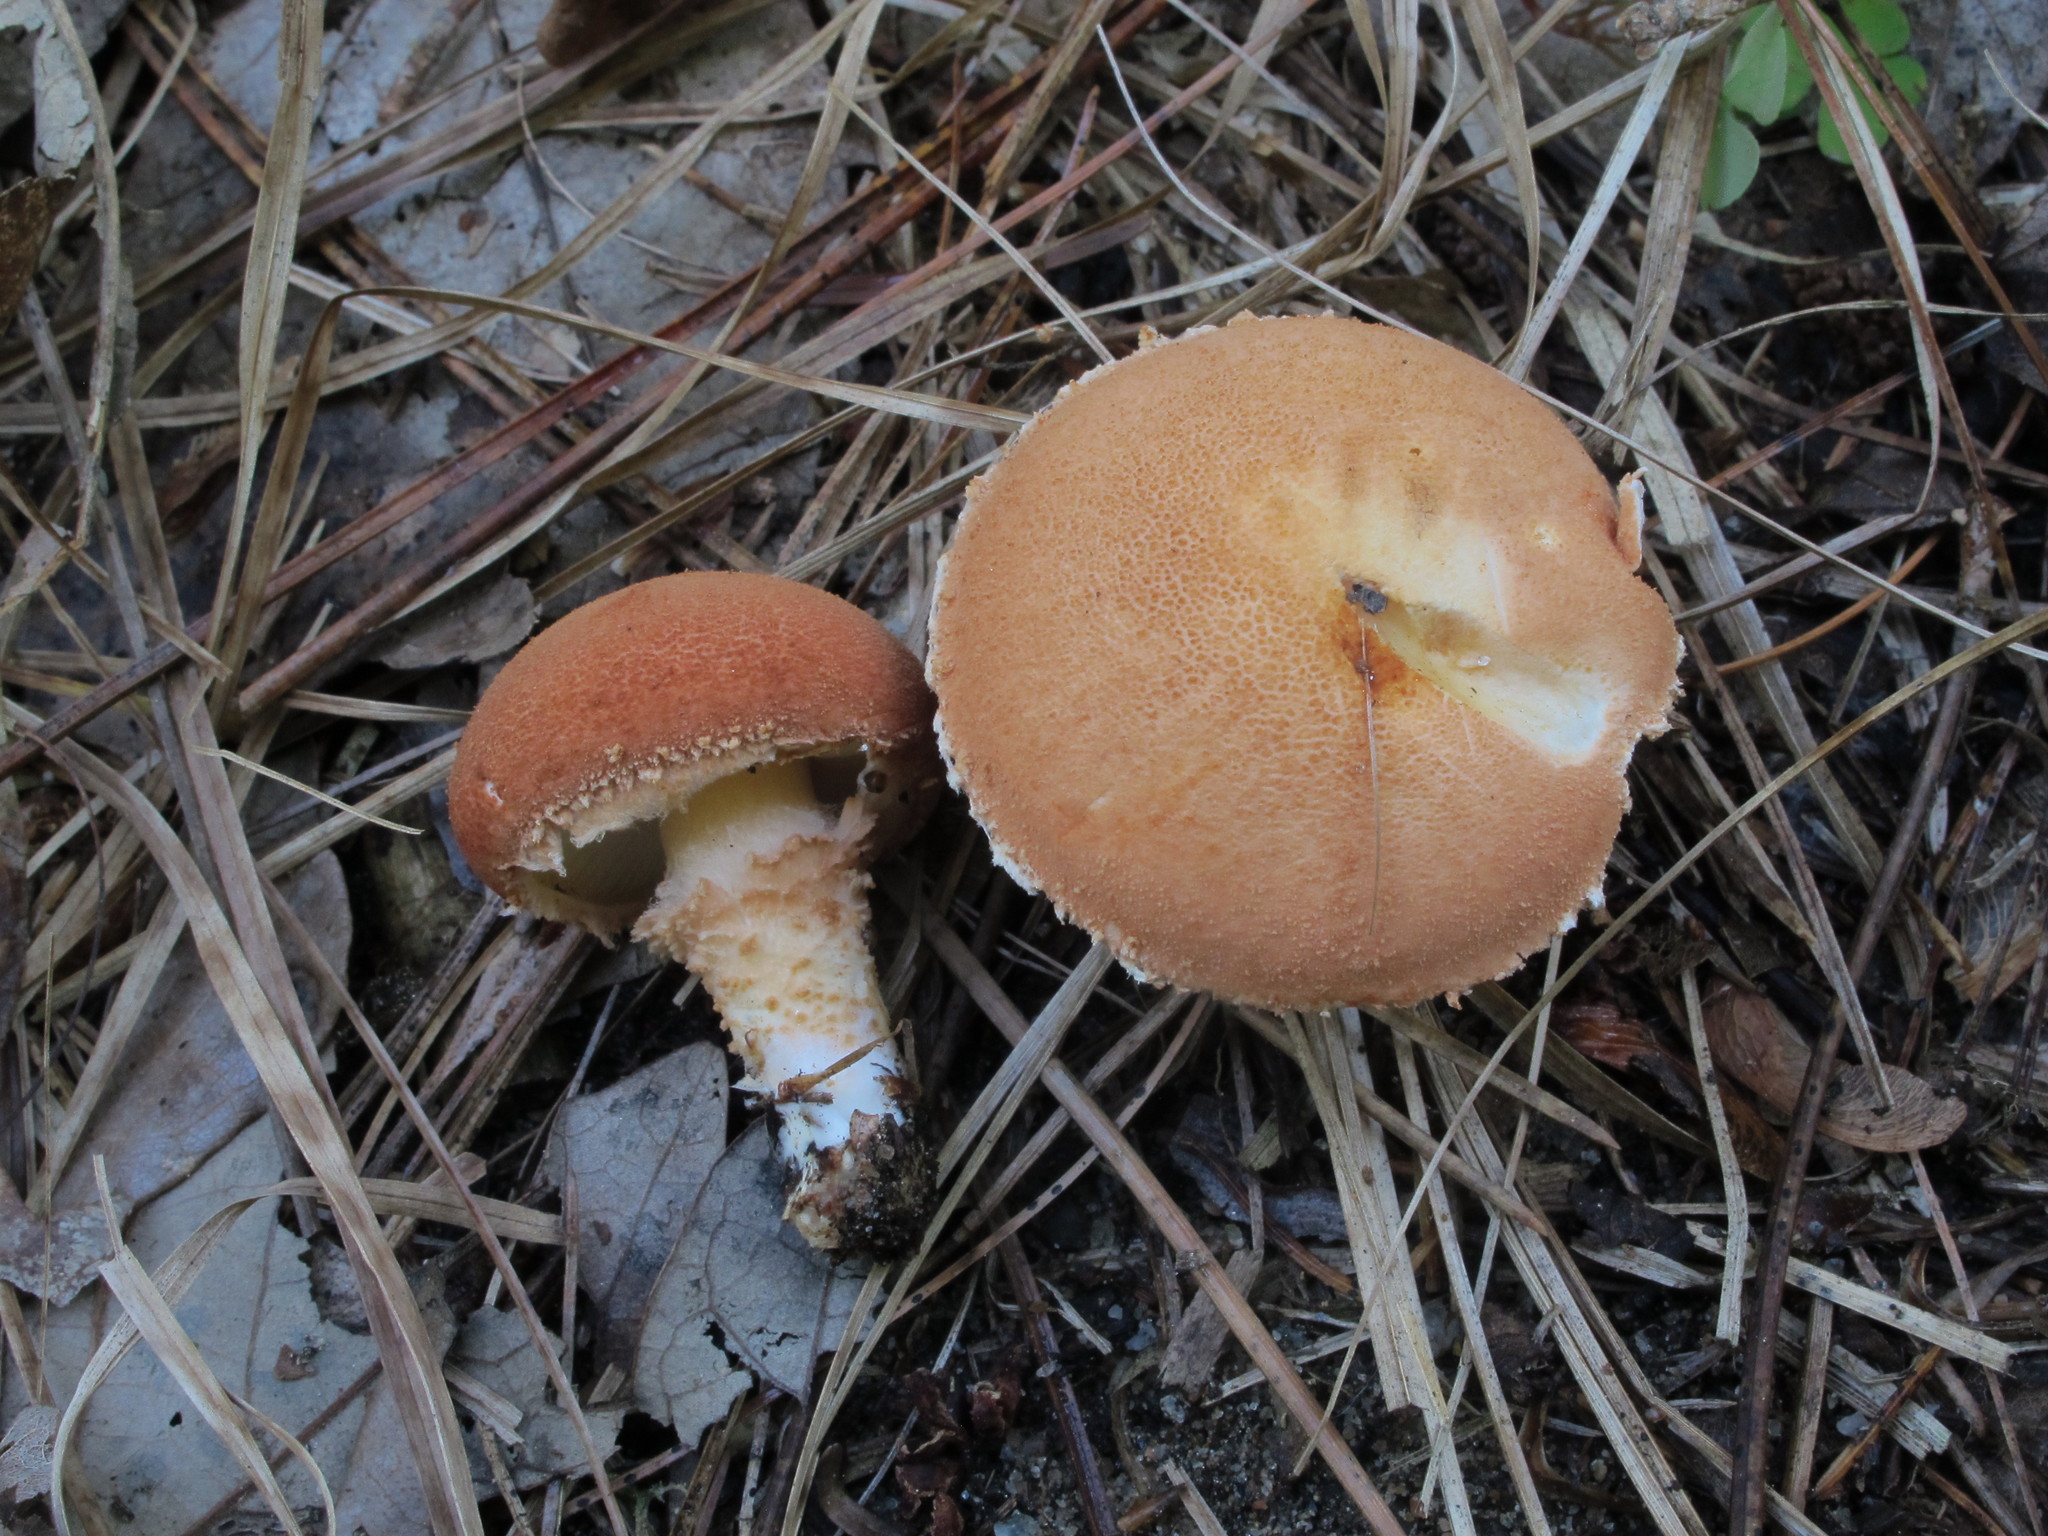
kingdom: Fungi
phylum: Basidiomycota
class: Agaricomycetes
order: Agaricales
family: Agaricaceae
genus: Cystodermella
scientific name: Cystodermella cinnabarina
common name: Cinnabar powdercap
